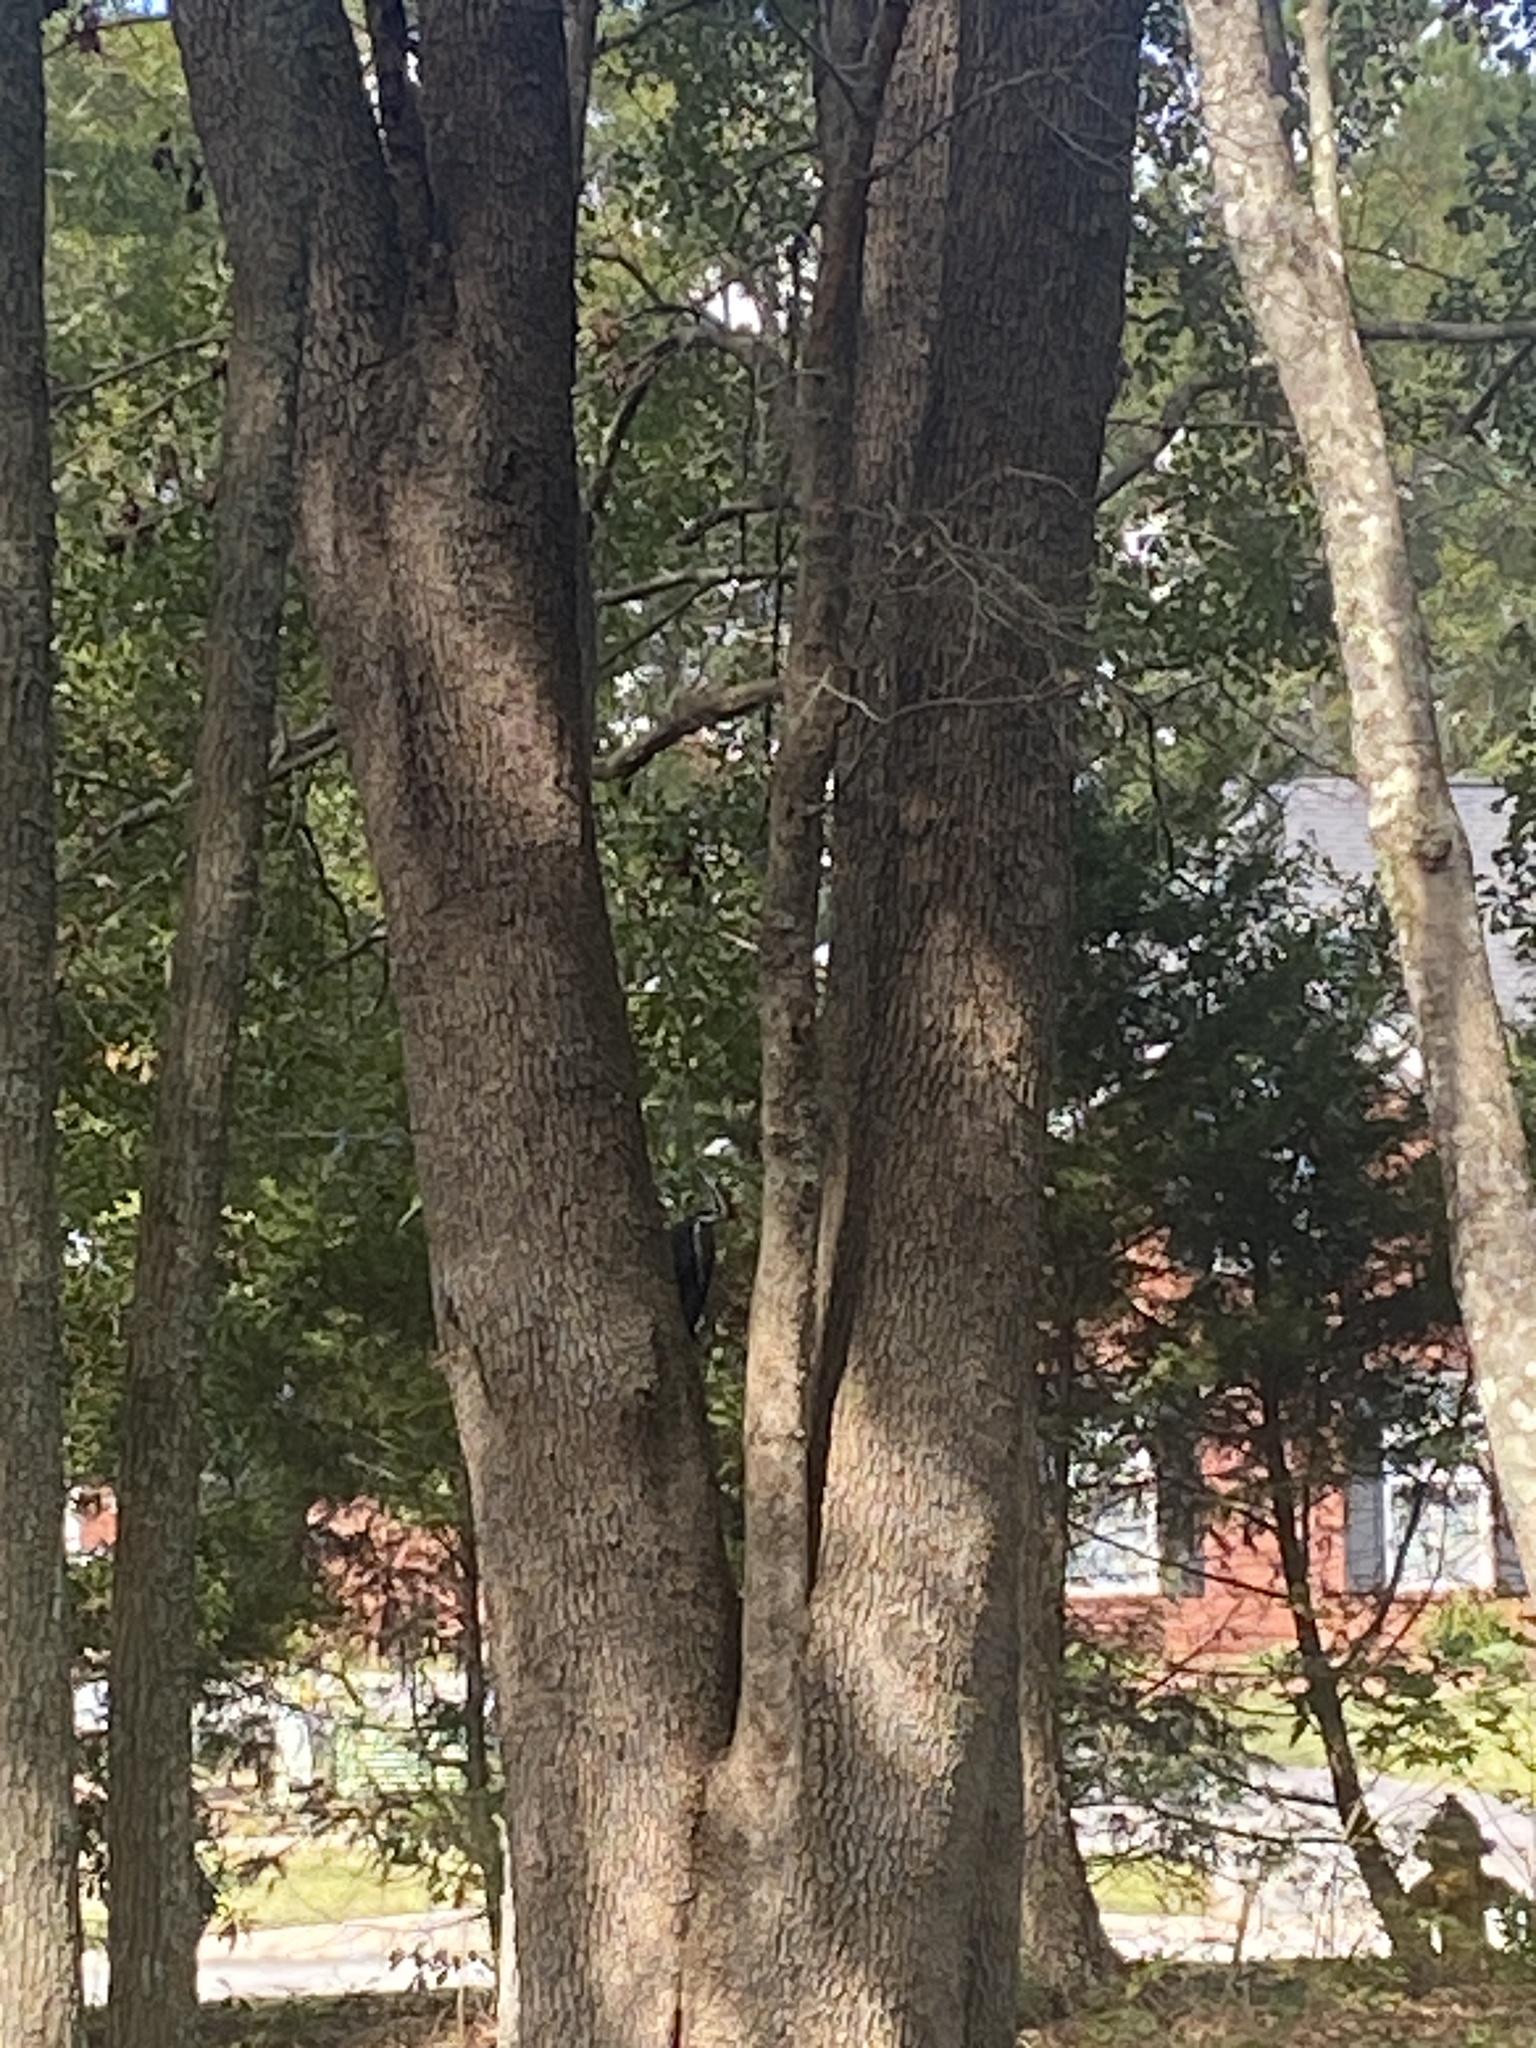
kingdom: Animalia
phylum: Chordata
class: Aves
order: Piciformes
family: Picidae
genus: Dryocopus
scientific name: Dryocopus pileatus
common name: Pileated woodpecker
